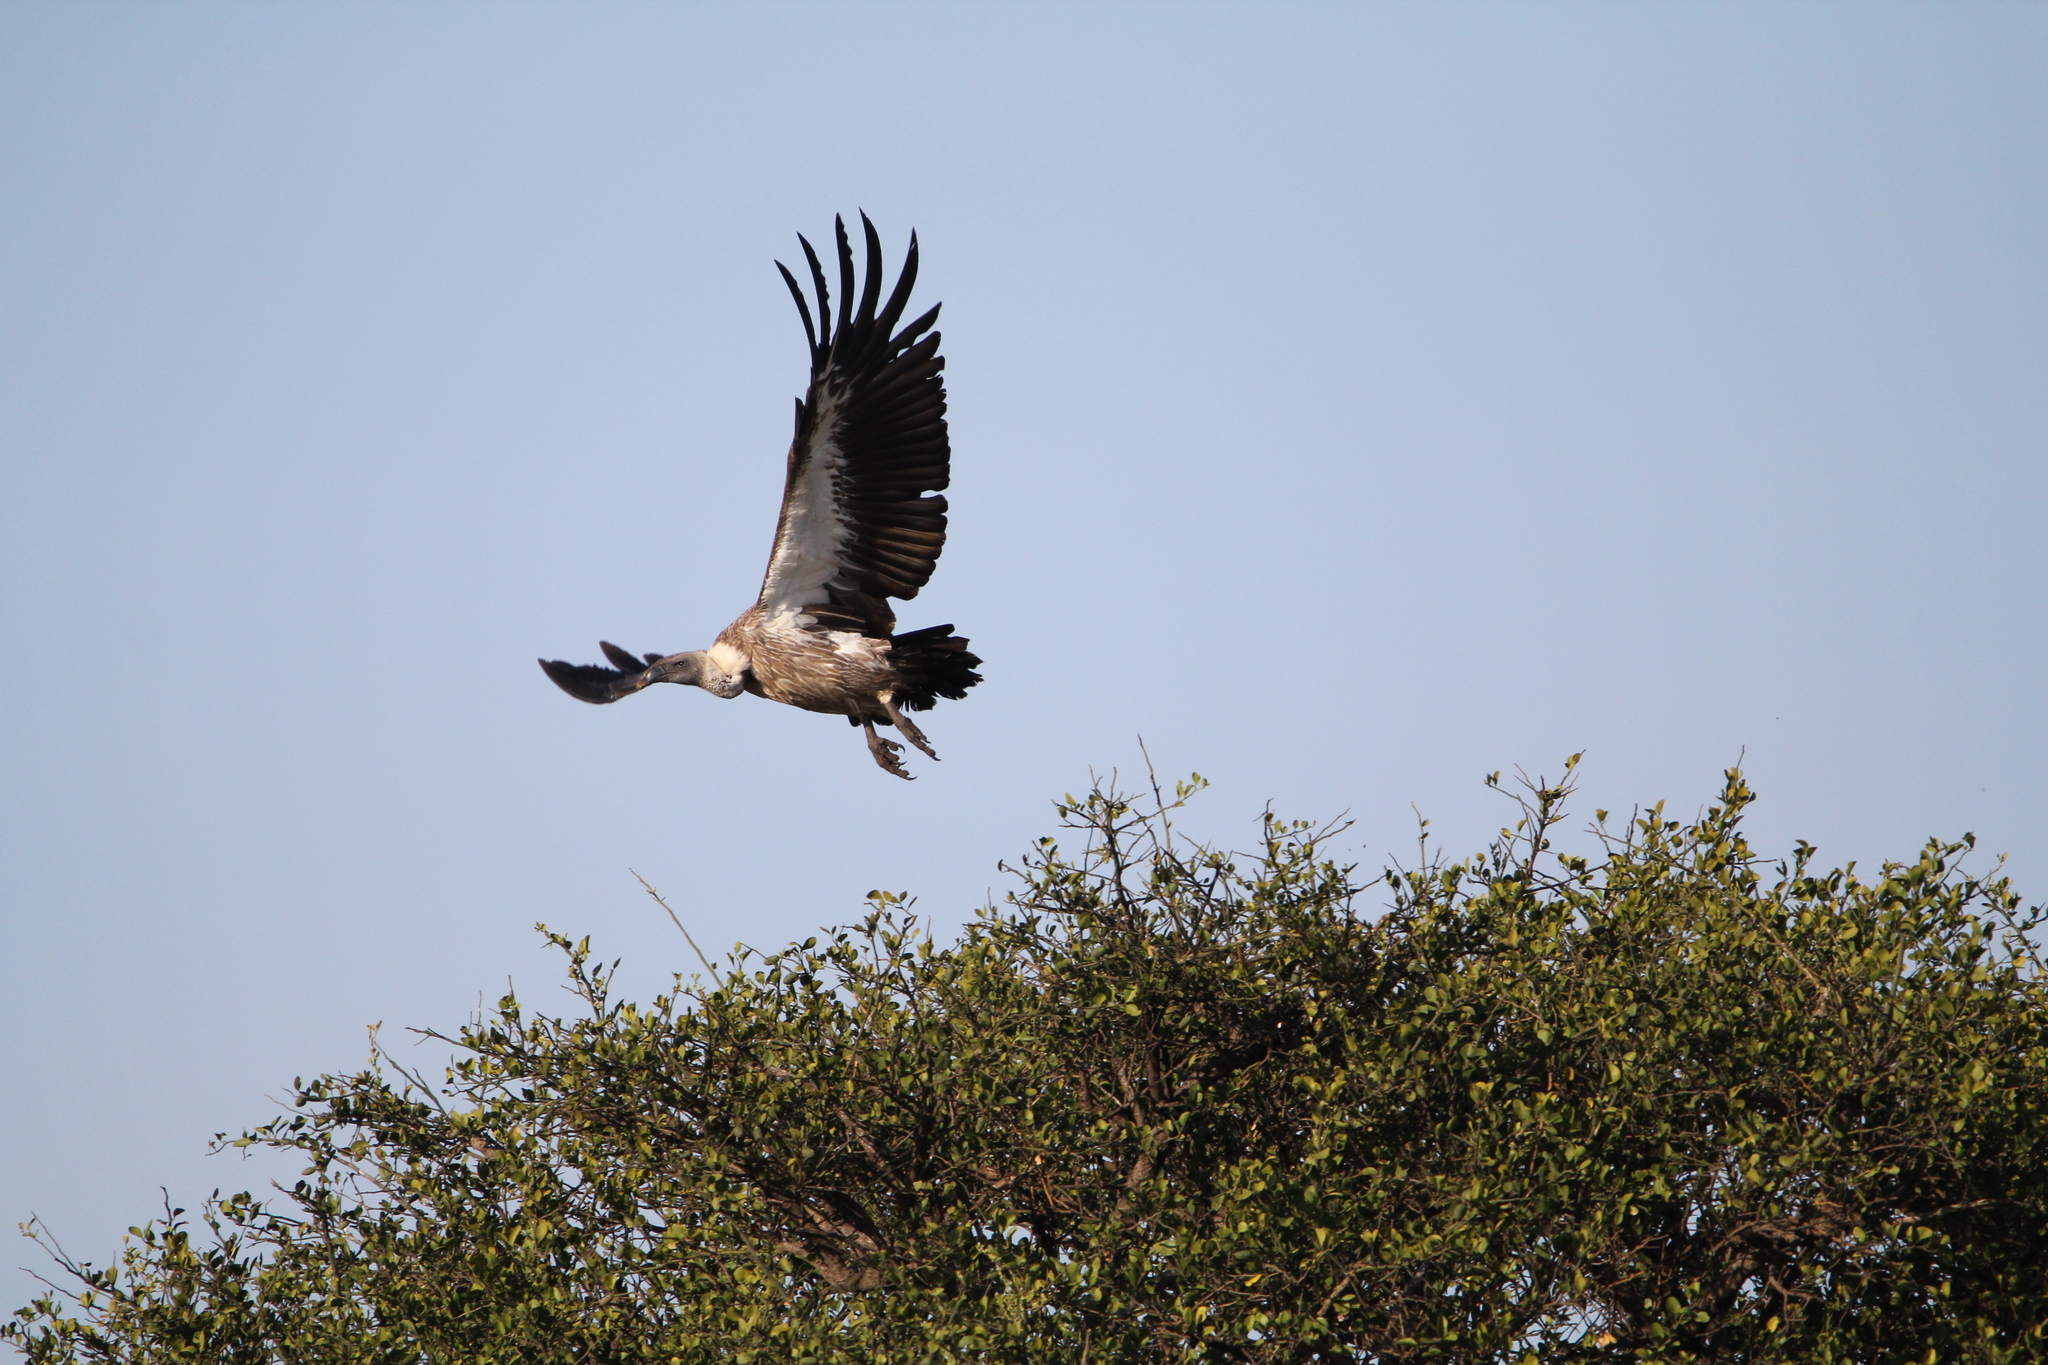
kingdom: Animalia
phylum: Chordata
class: Aves
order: Accipitriformes
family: Accipitridae
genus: Gyps
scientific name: Gyps africanus
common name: White-backed vulture
